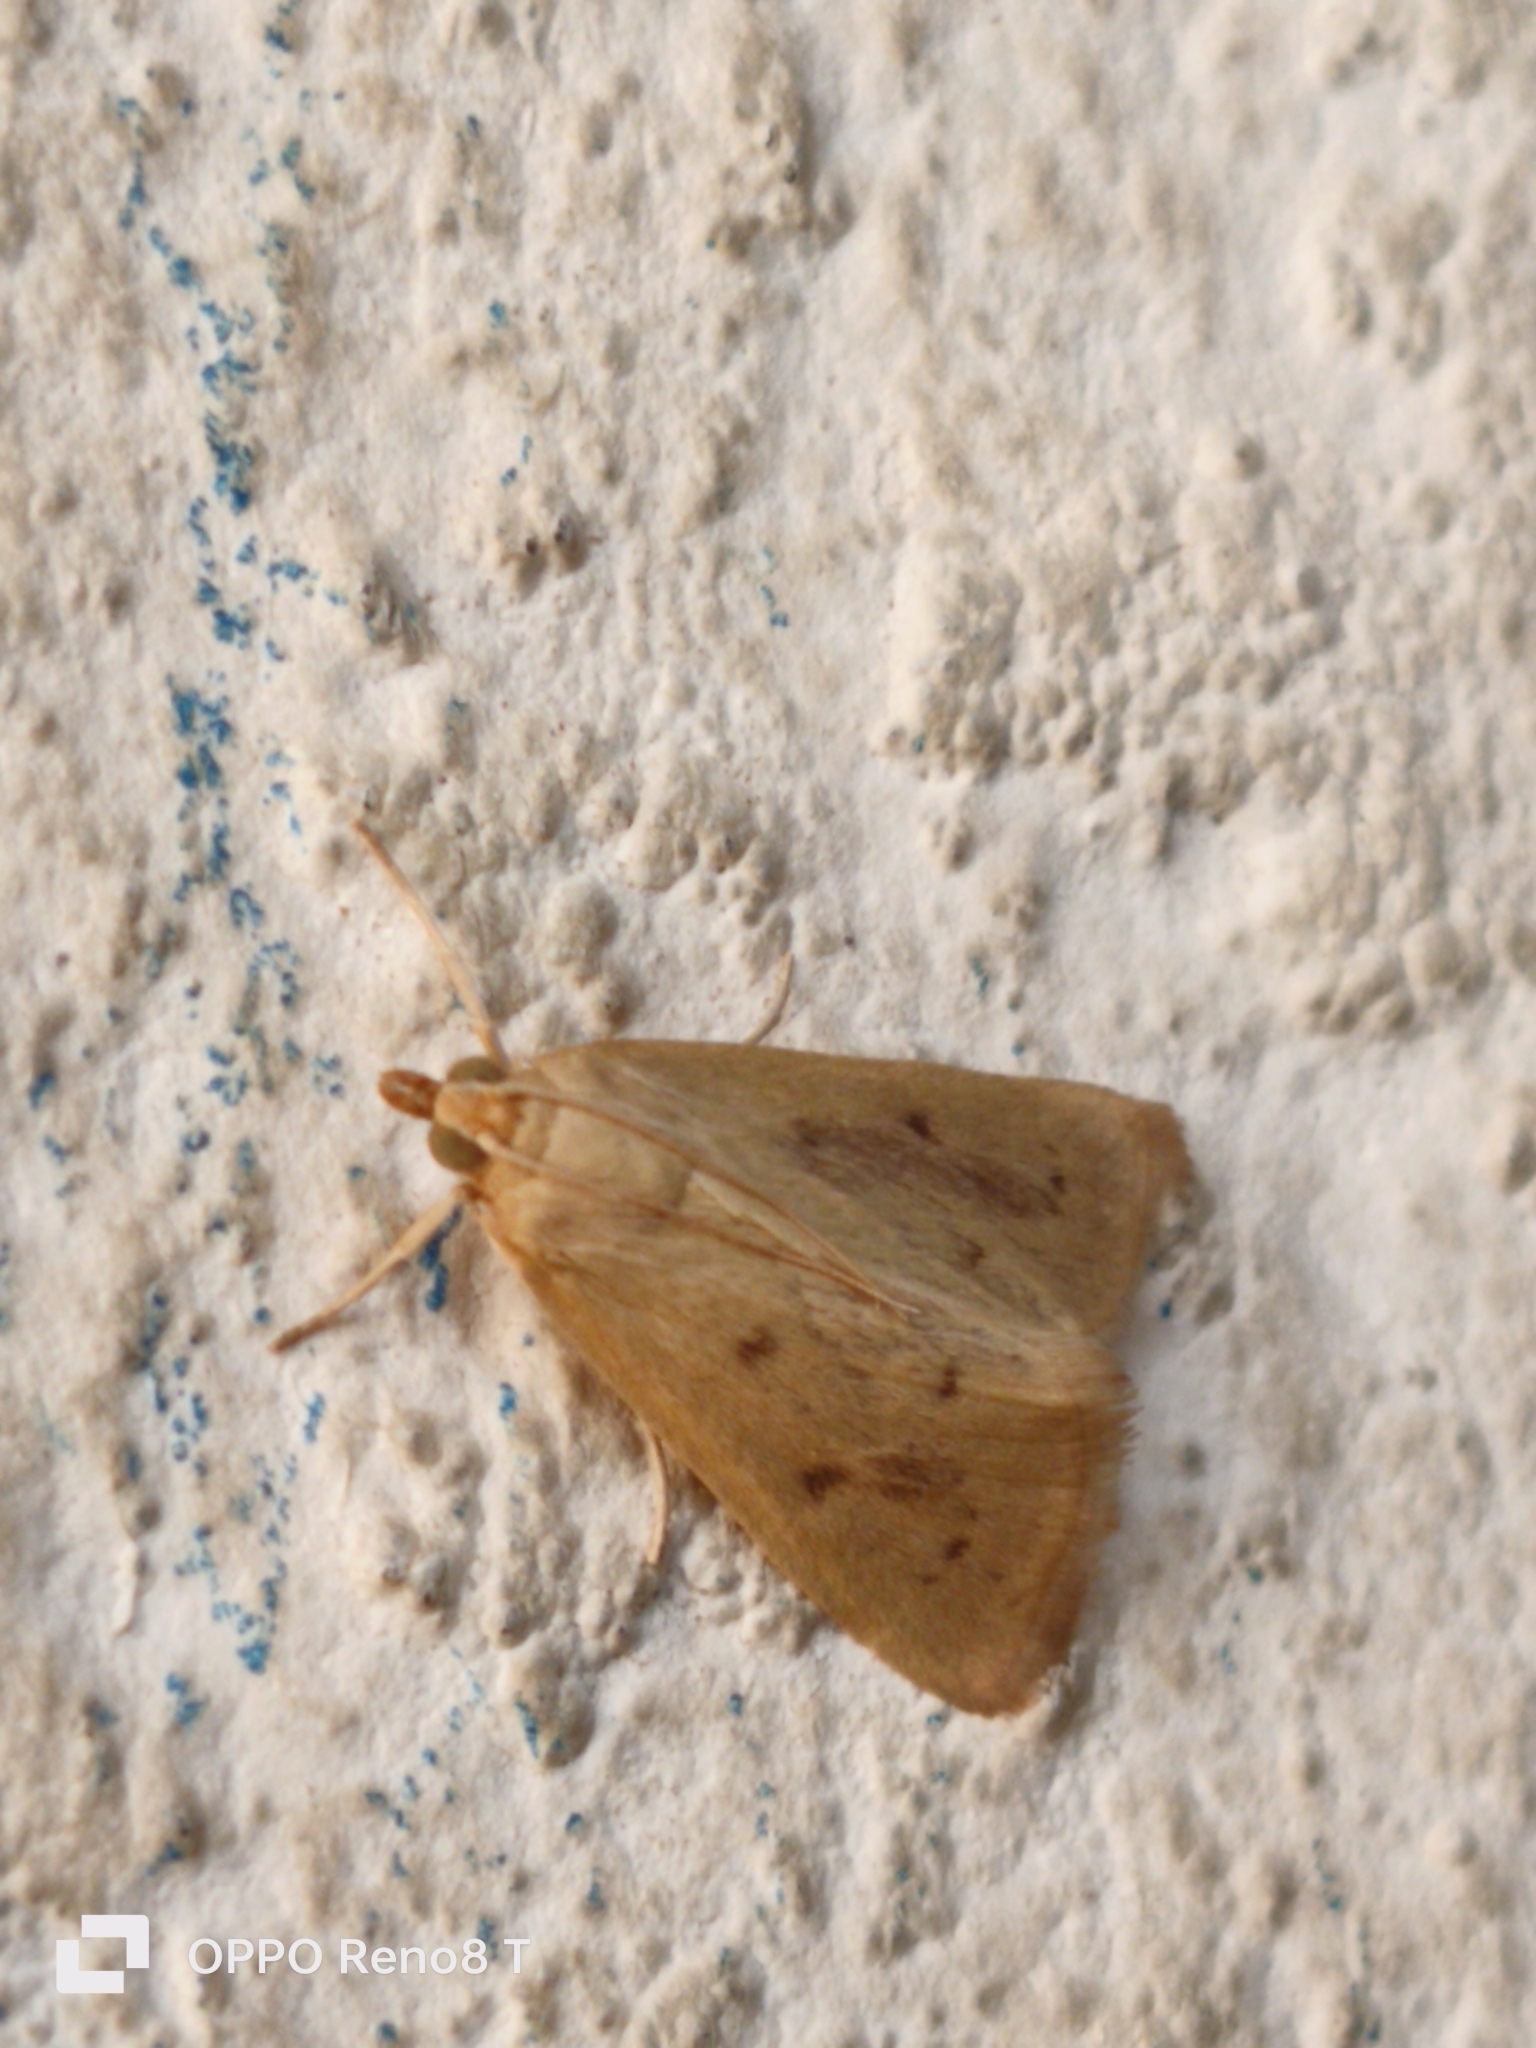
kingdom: Animalia
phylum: Arthropoda
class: Insecta
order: Lepidoptera
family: Crambidae
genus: Achyra
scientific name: Achyra nudalis
